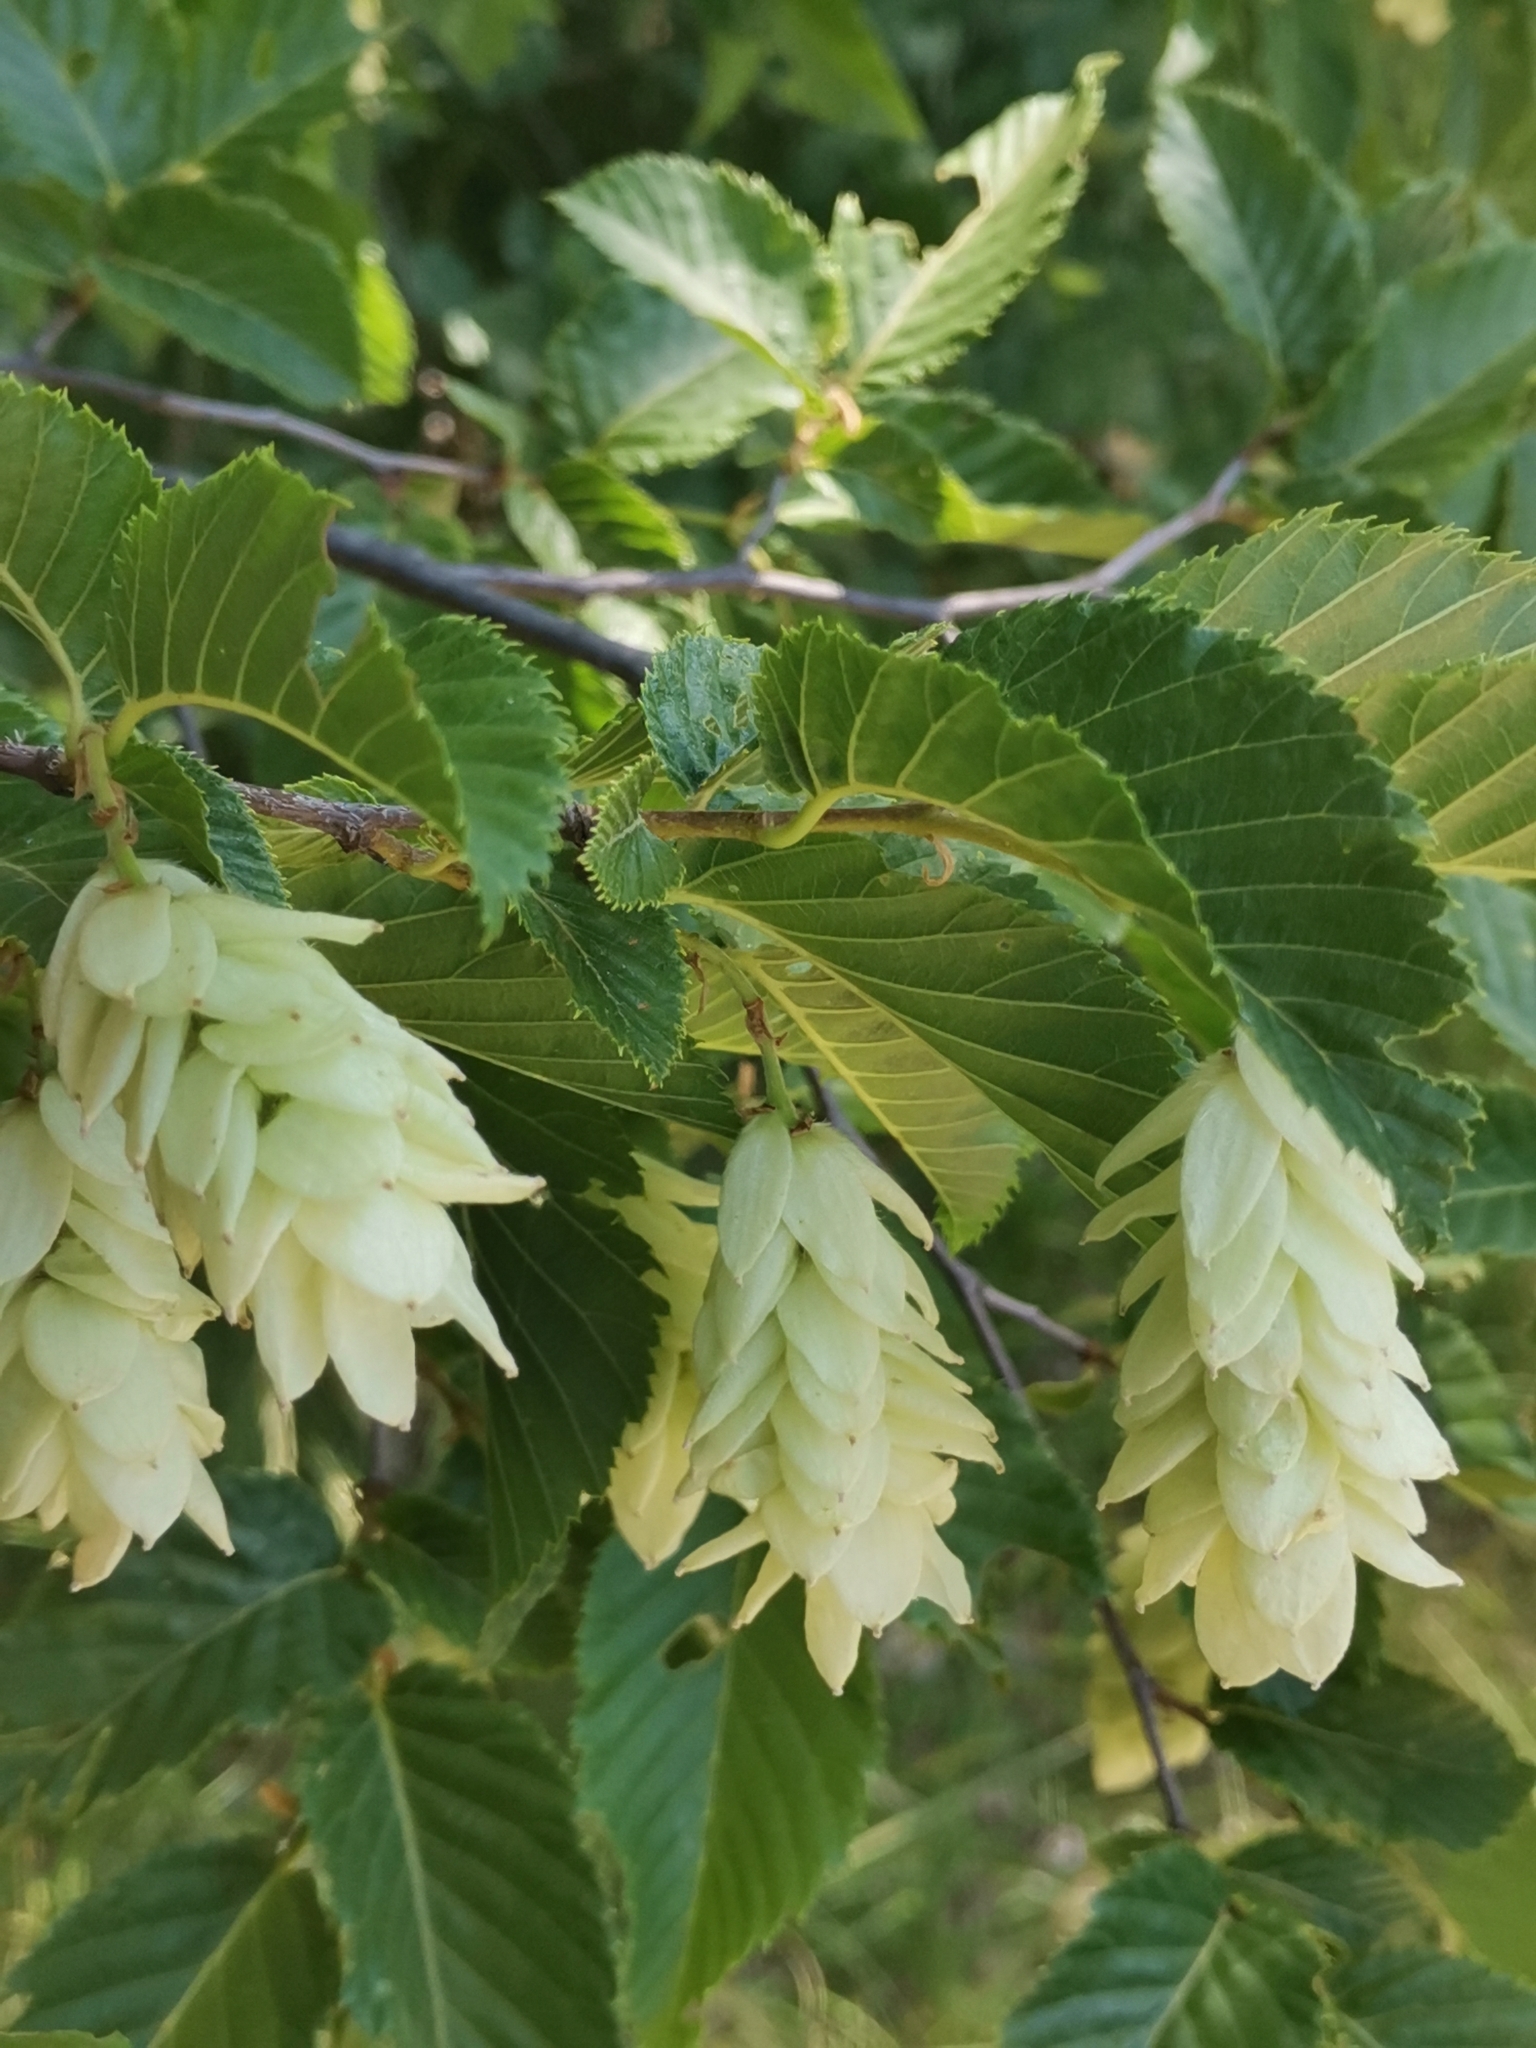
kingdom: Plantae
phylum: Tracheophyta
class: Magnoliopsida
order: Fagales
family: Betulaceae
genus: Ostrya
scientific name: Ostrya carpinifolia
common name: European hop-hornbeam
